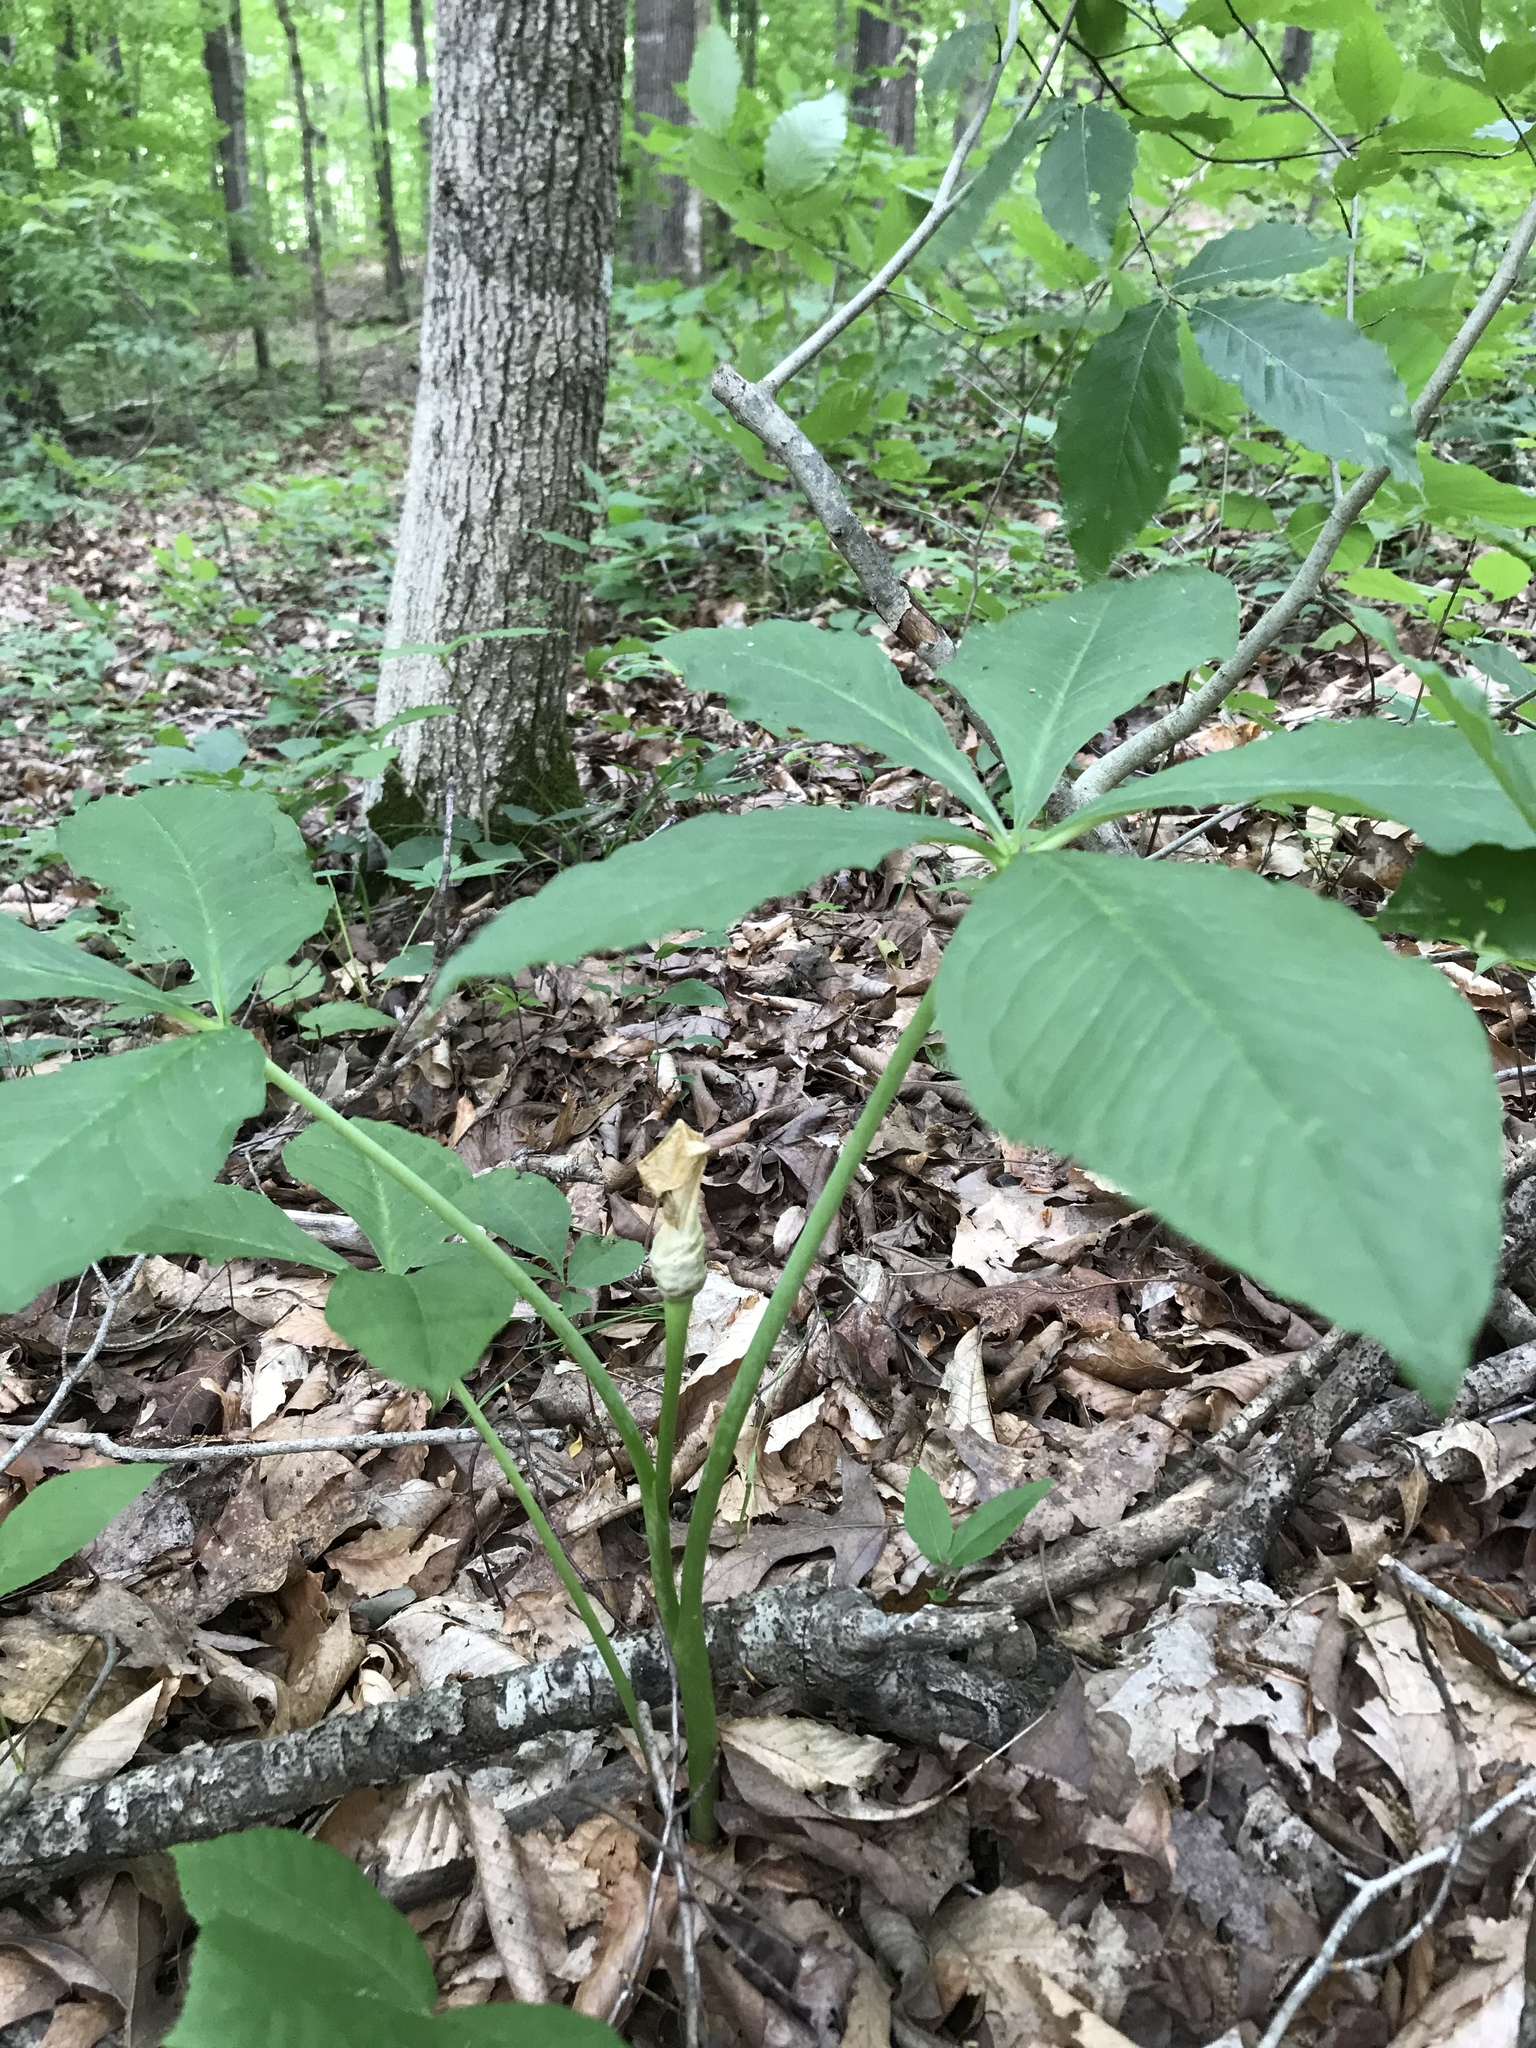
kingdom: Plantae
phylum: Tracheophyta
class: Liliopsida
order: Alismatales
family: Araceae
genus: Arisaema
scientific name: Arisaema quinatum
